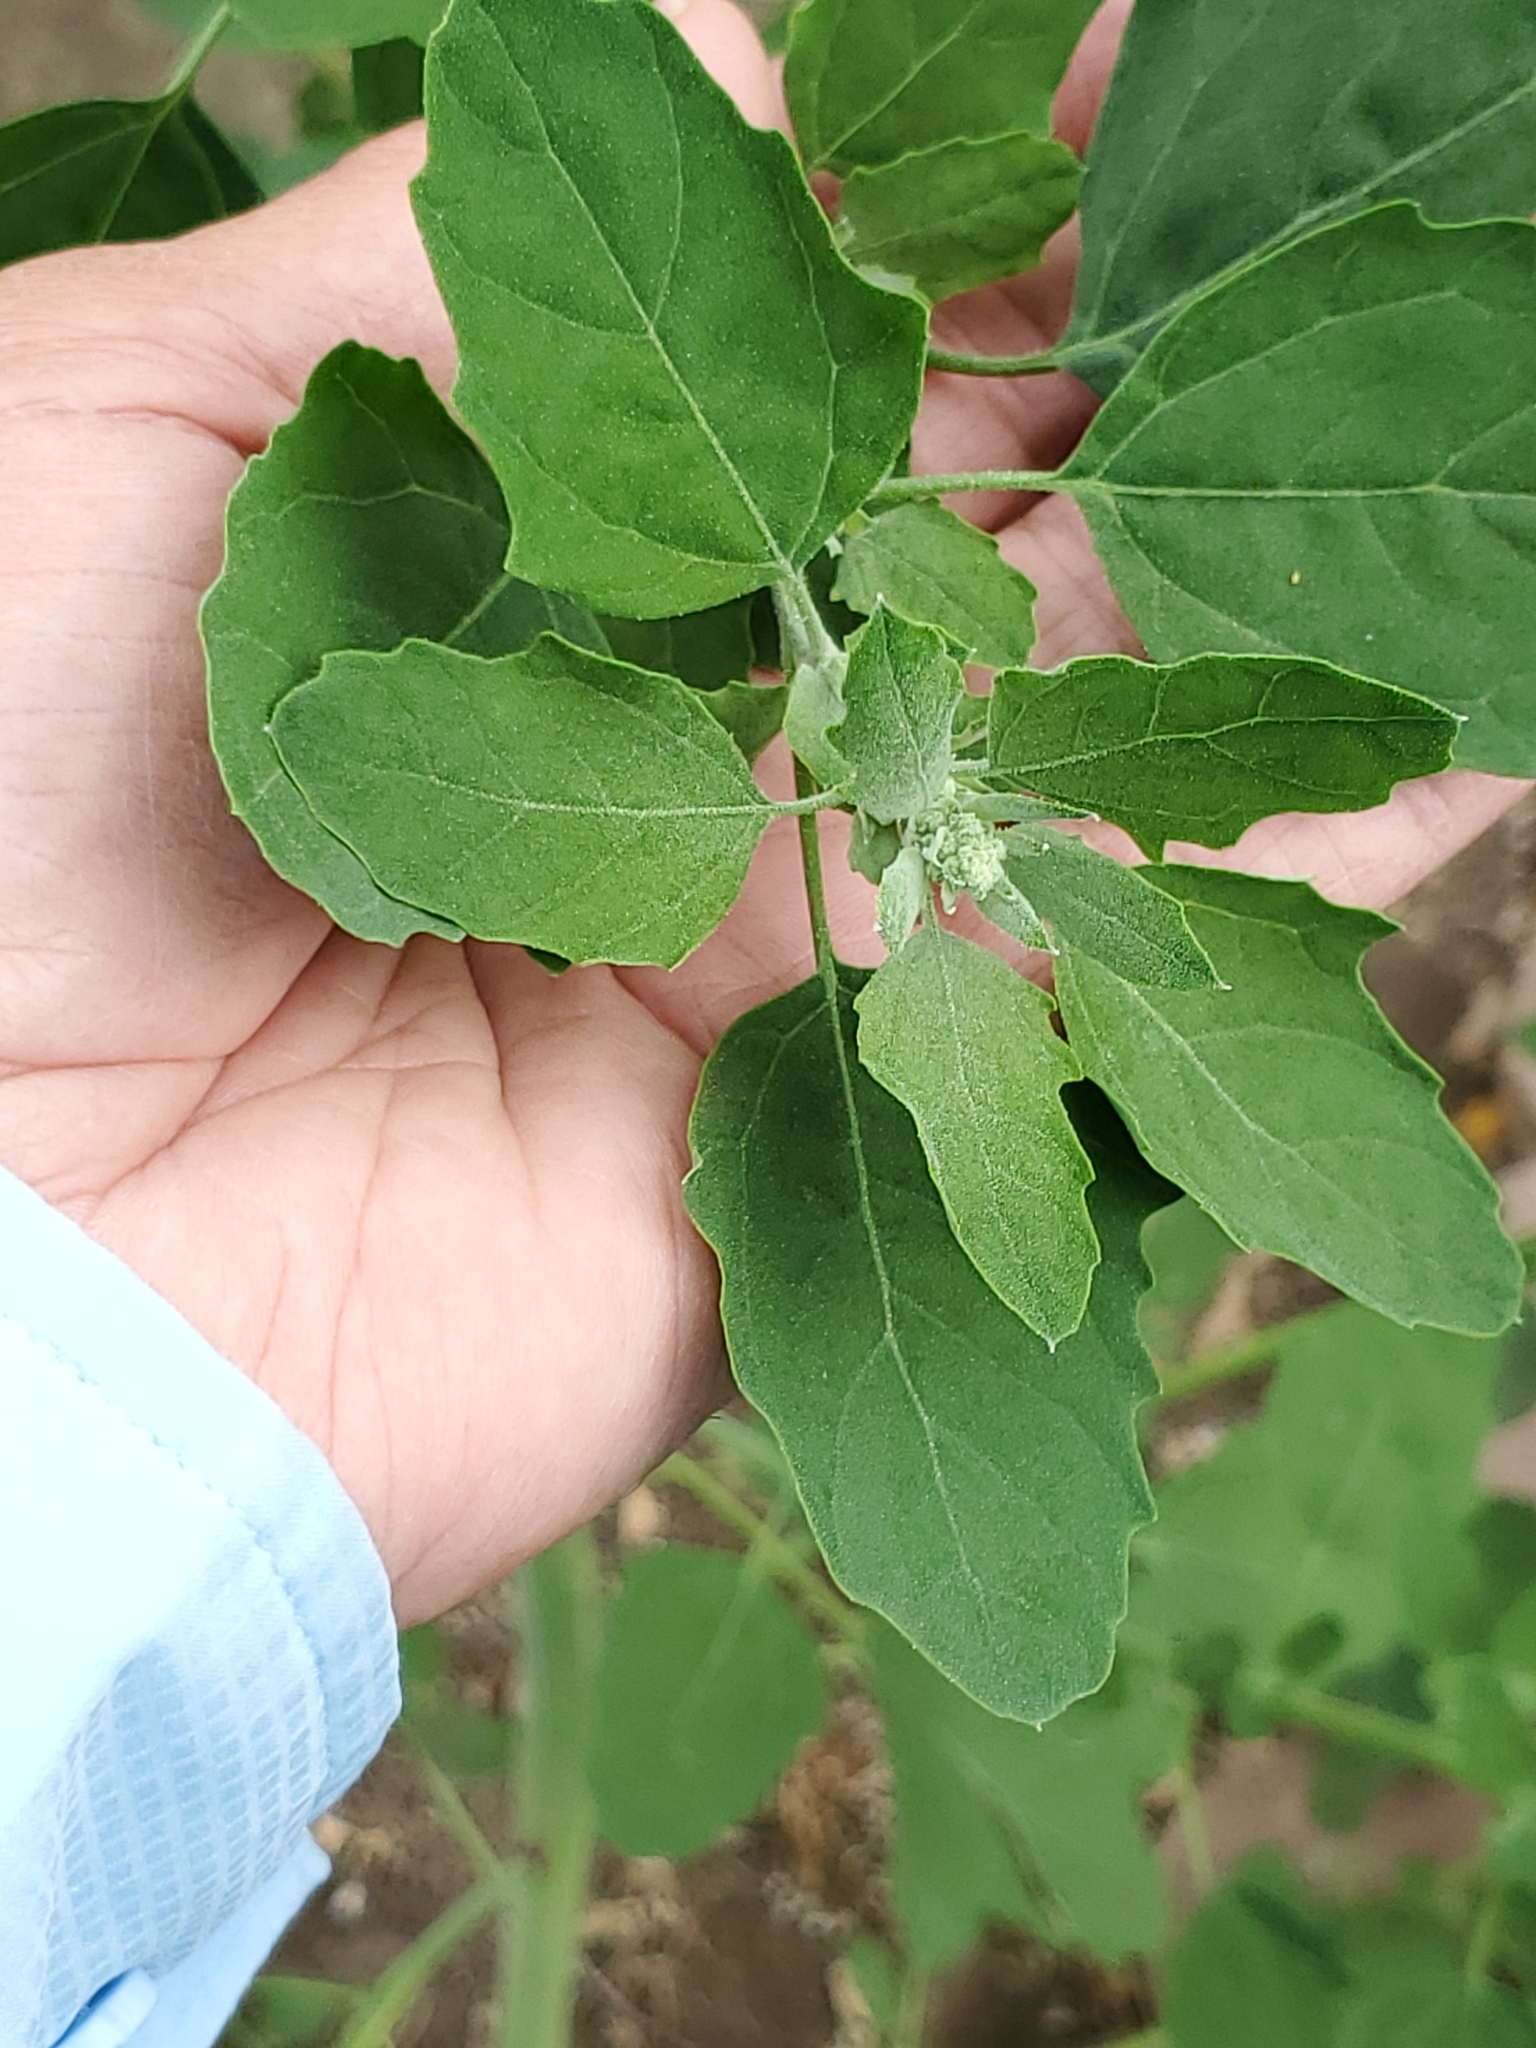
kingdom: Plantae
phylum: Tracheophyta
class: Magnoliopsida
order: Caryophyllales
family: Amaranthaceae
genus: Chenopodium
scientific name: Chenopodium album
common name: Fat-hen
